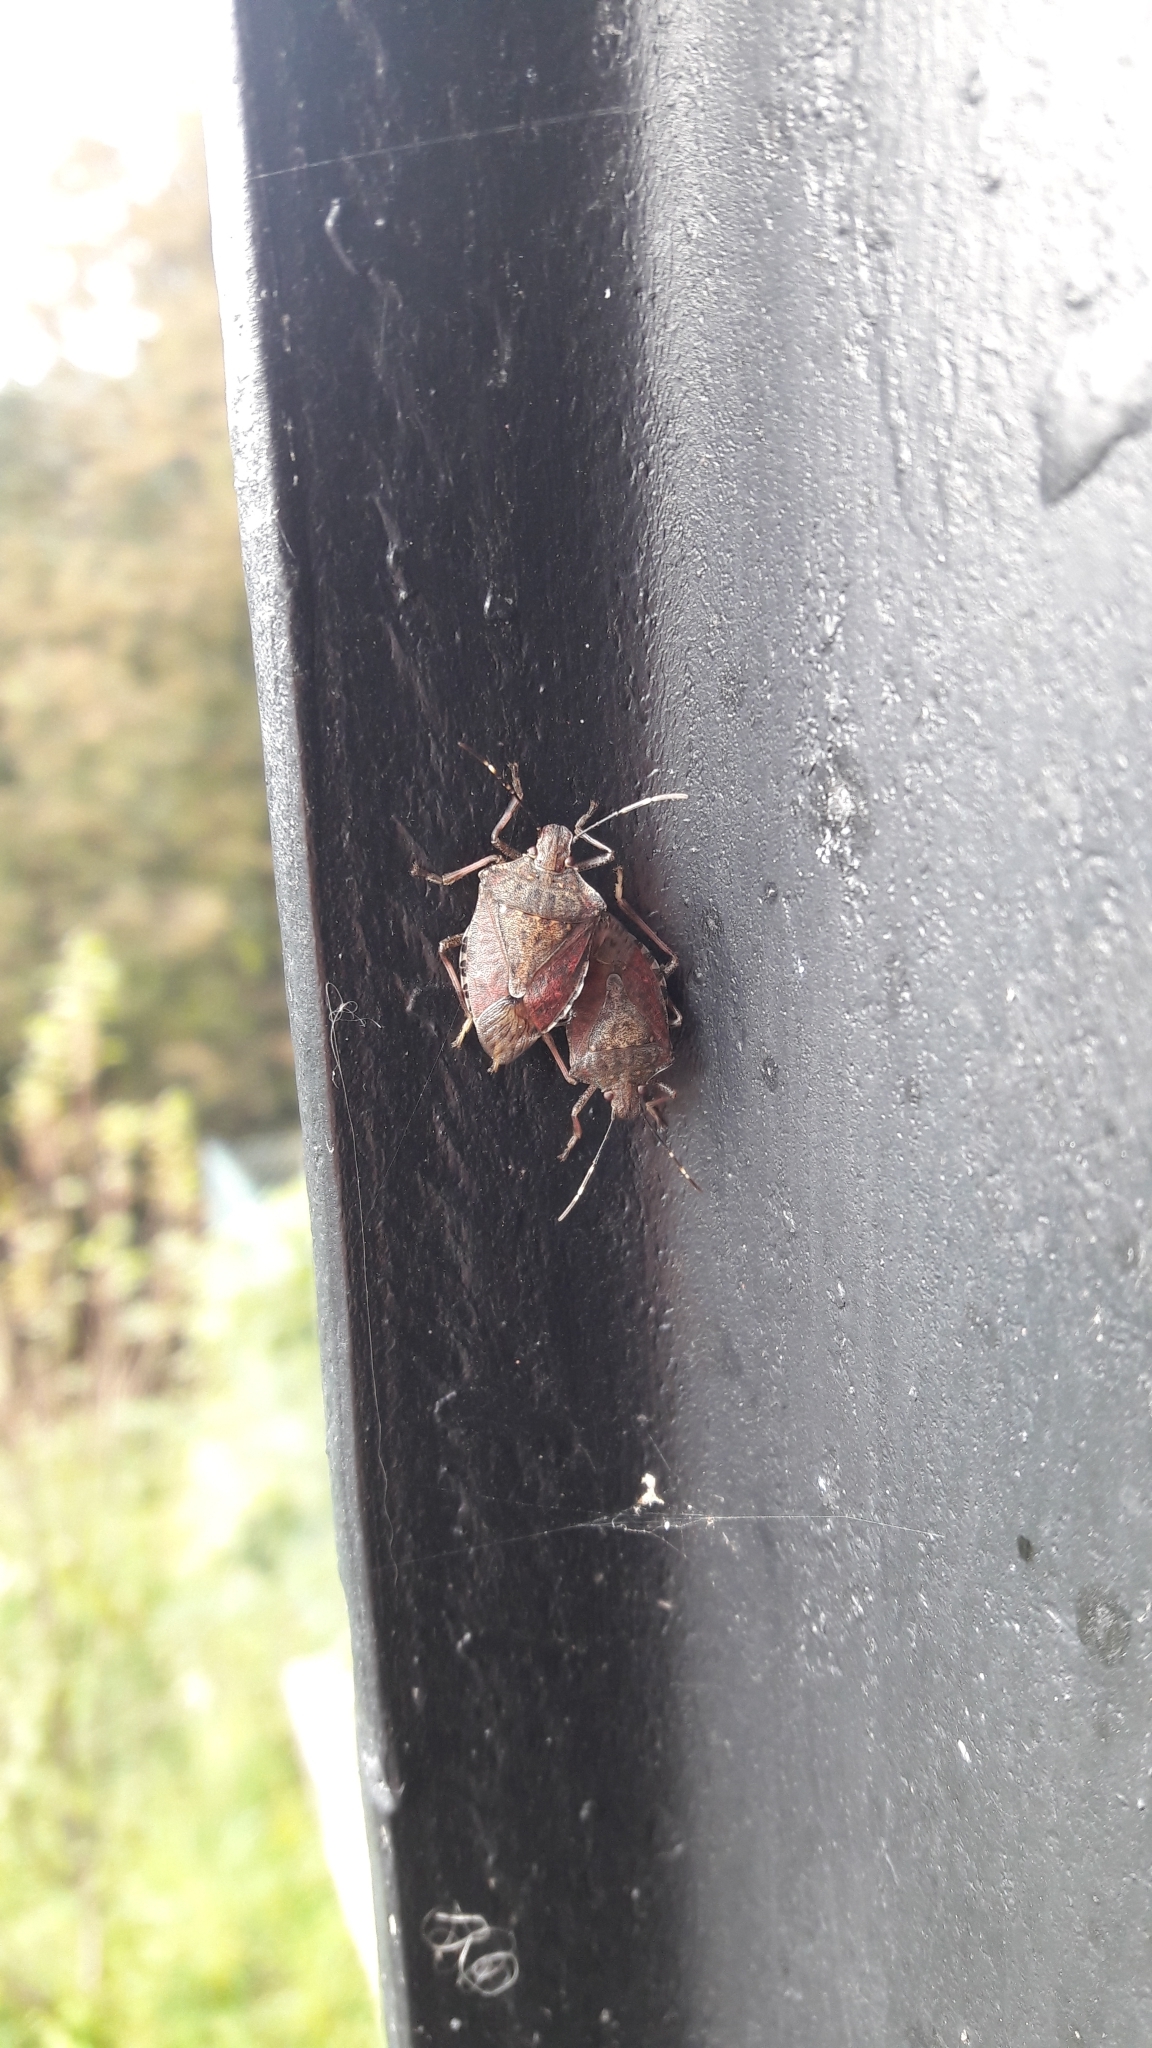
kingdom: Animalia
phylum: Arthropoda
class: Insecta
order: Hemiptera
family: Pentatomidae
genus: Halyomorpha
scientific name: Halyomorpha halys
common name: Brown marmorated stink bug
